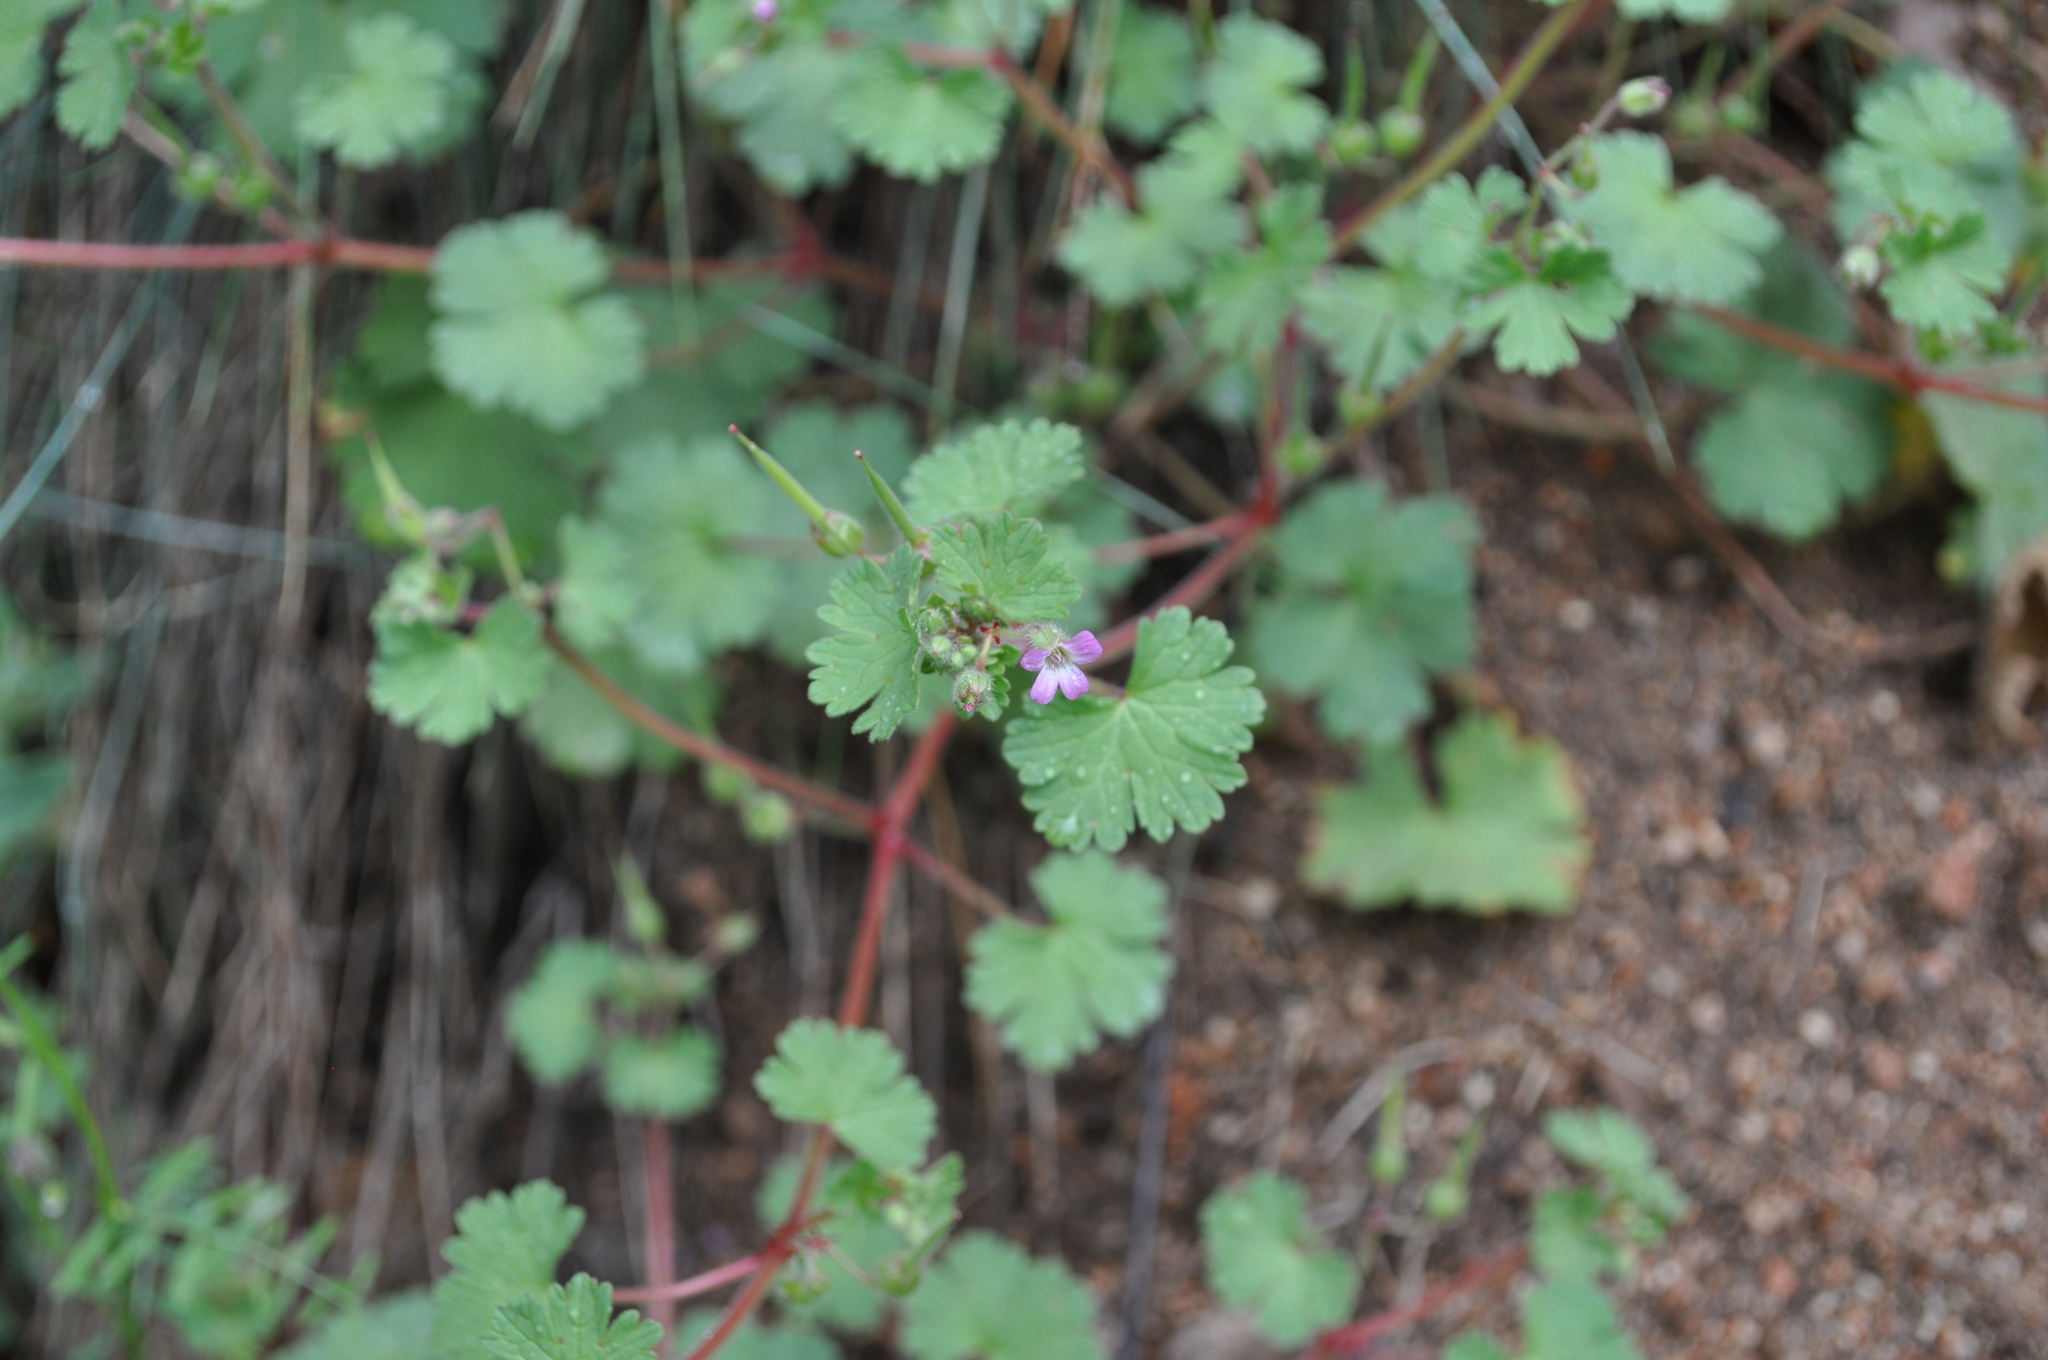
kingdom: Plantae
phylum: Tracheophyta
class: Magnoliopsida
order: Geraniales
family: Geraniaceae
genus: Geranium
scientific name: Geranium rotundifolium
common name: Round-leaved crane's-bill
